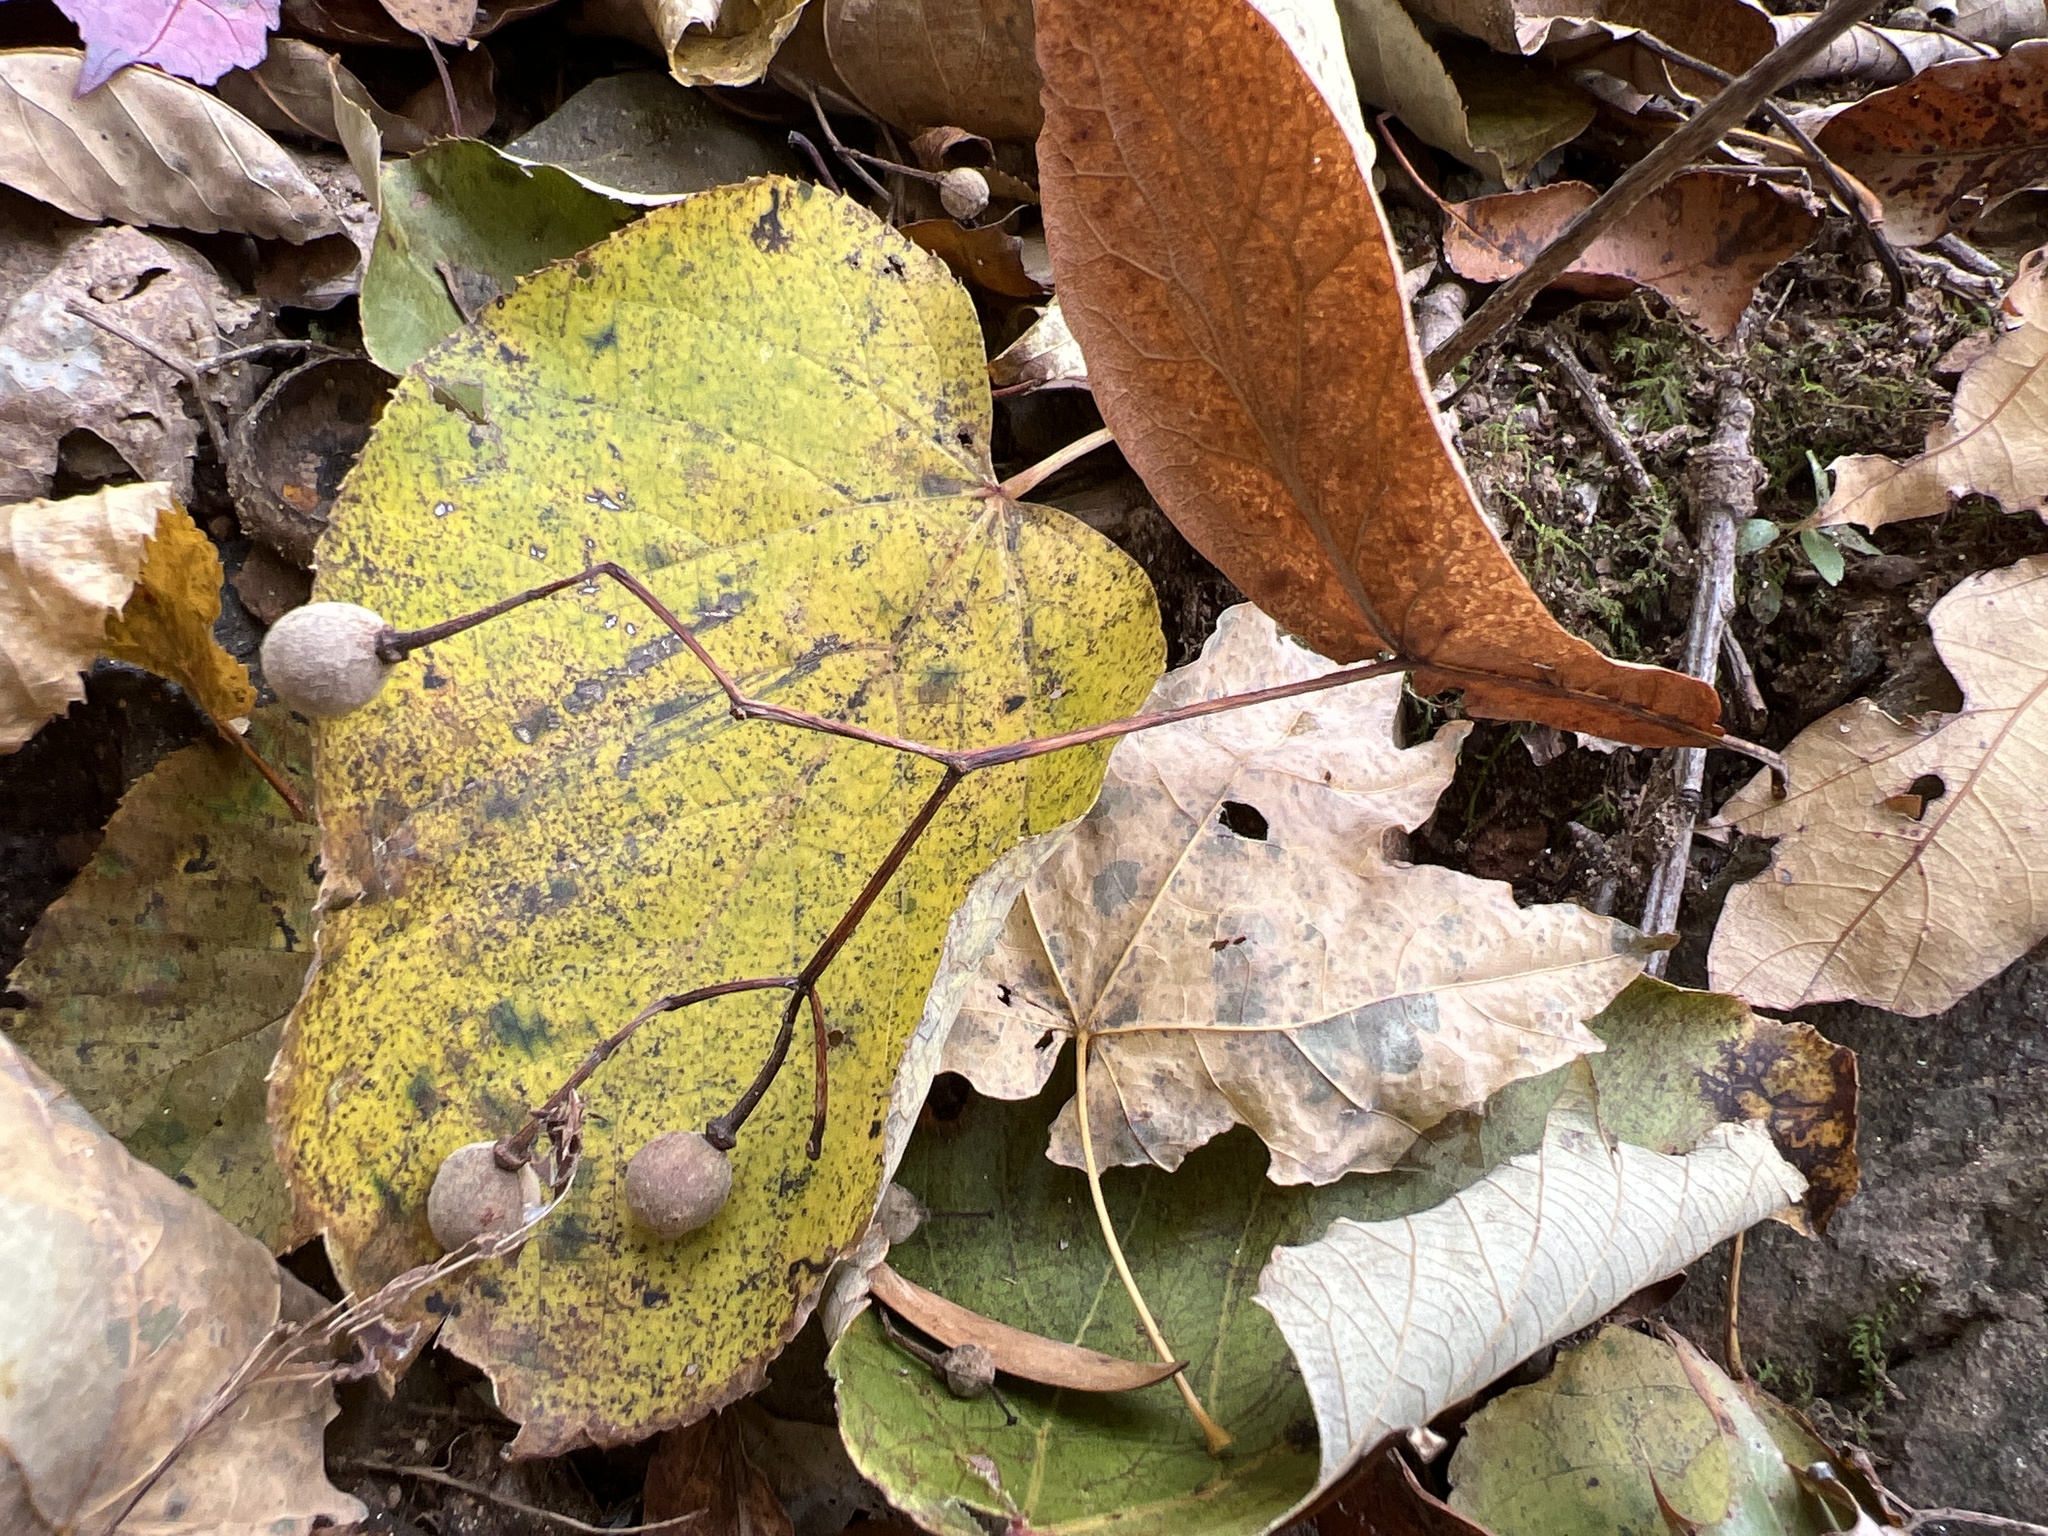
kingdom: Plantae
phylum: Tracheophyta
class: Magnoliopsida
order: Malvales
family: Malvaceae
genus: Tilia
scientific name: Tilia americana
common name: Basswood
